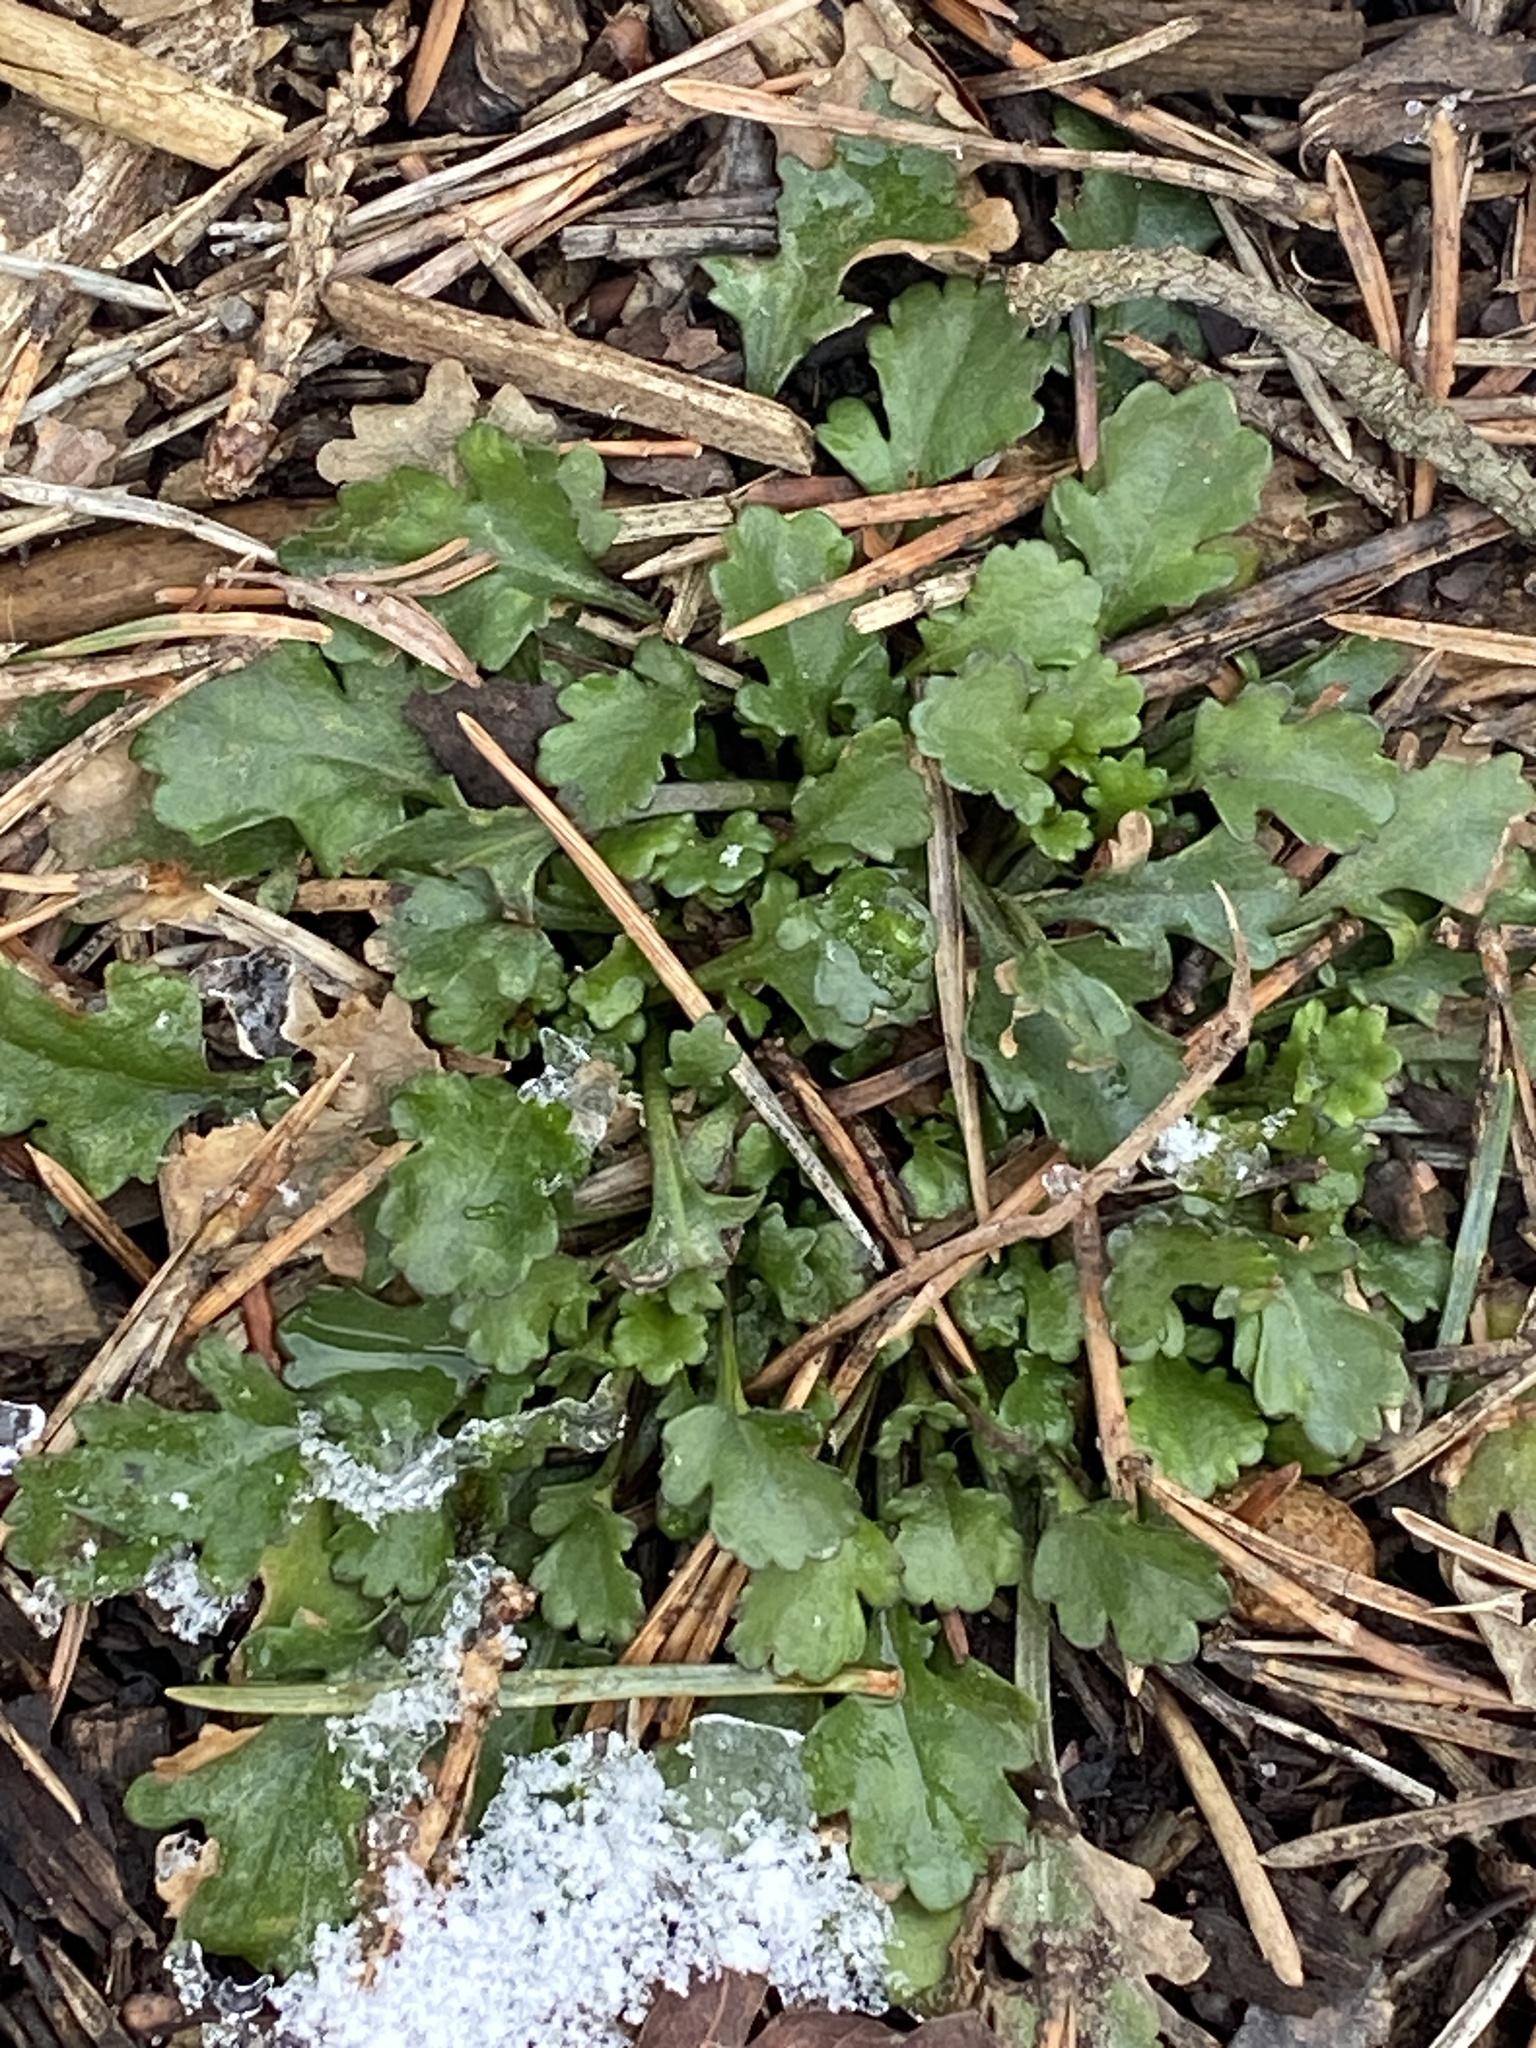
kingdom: Plantae
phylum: Tracheophyta
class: Magnoliopsida
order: Asterales
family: Asteraceae
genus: Leucanthemum
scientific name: Leucanthemum vulgare
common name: Oxeye daisy
